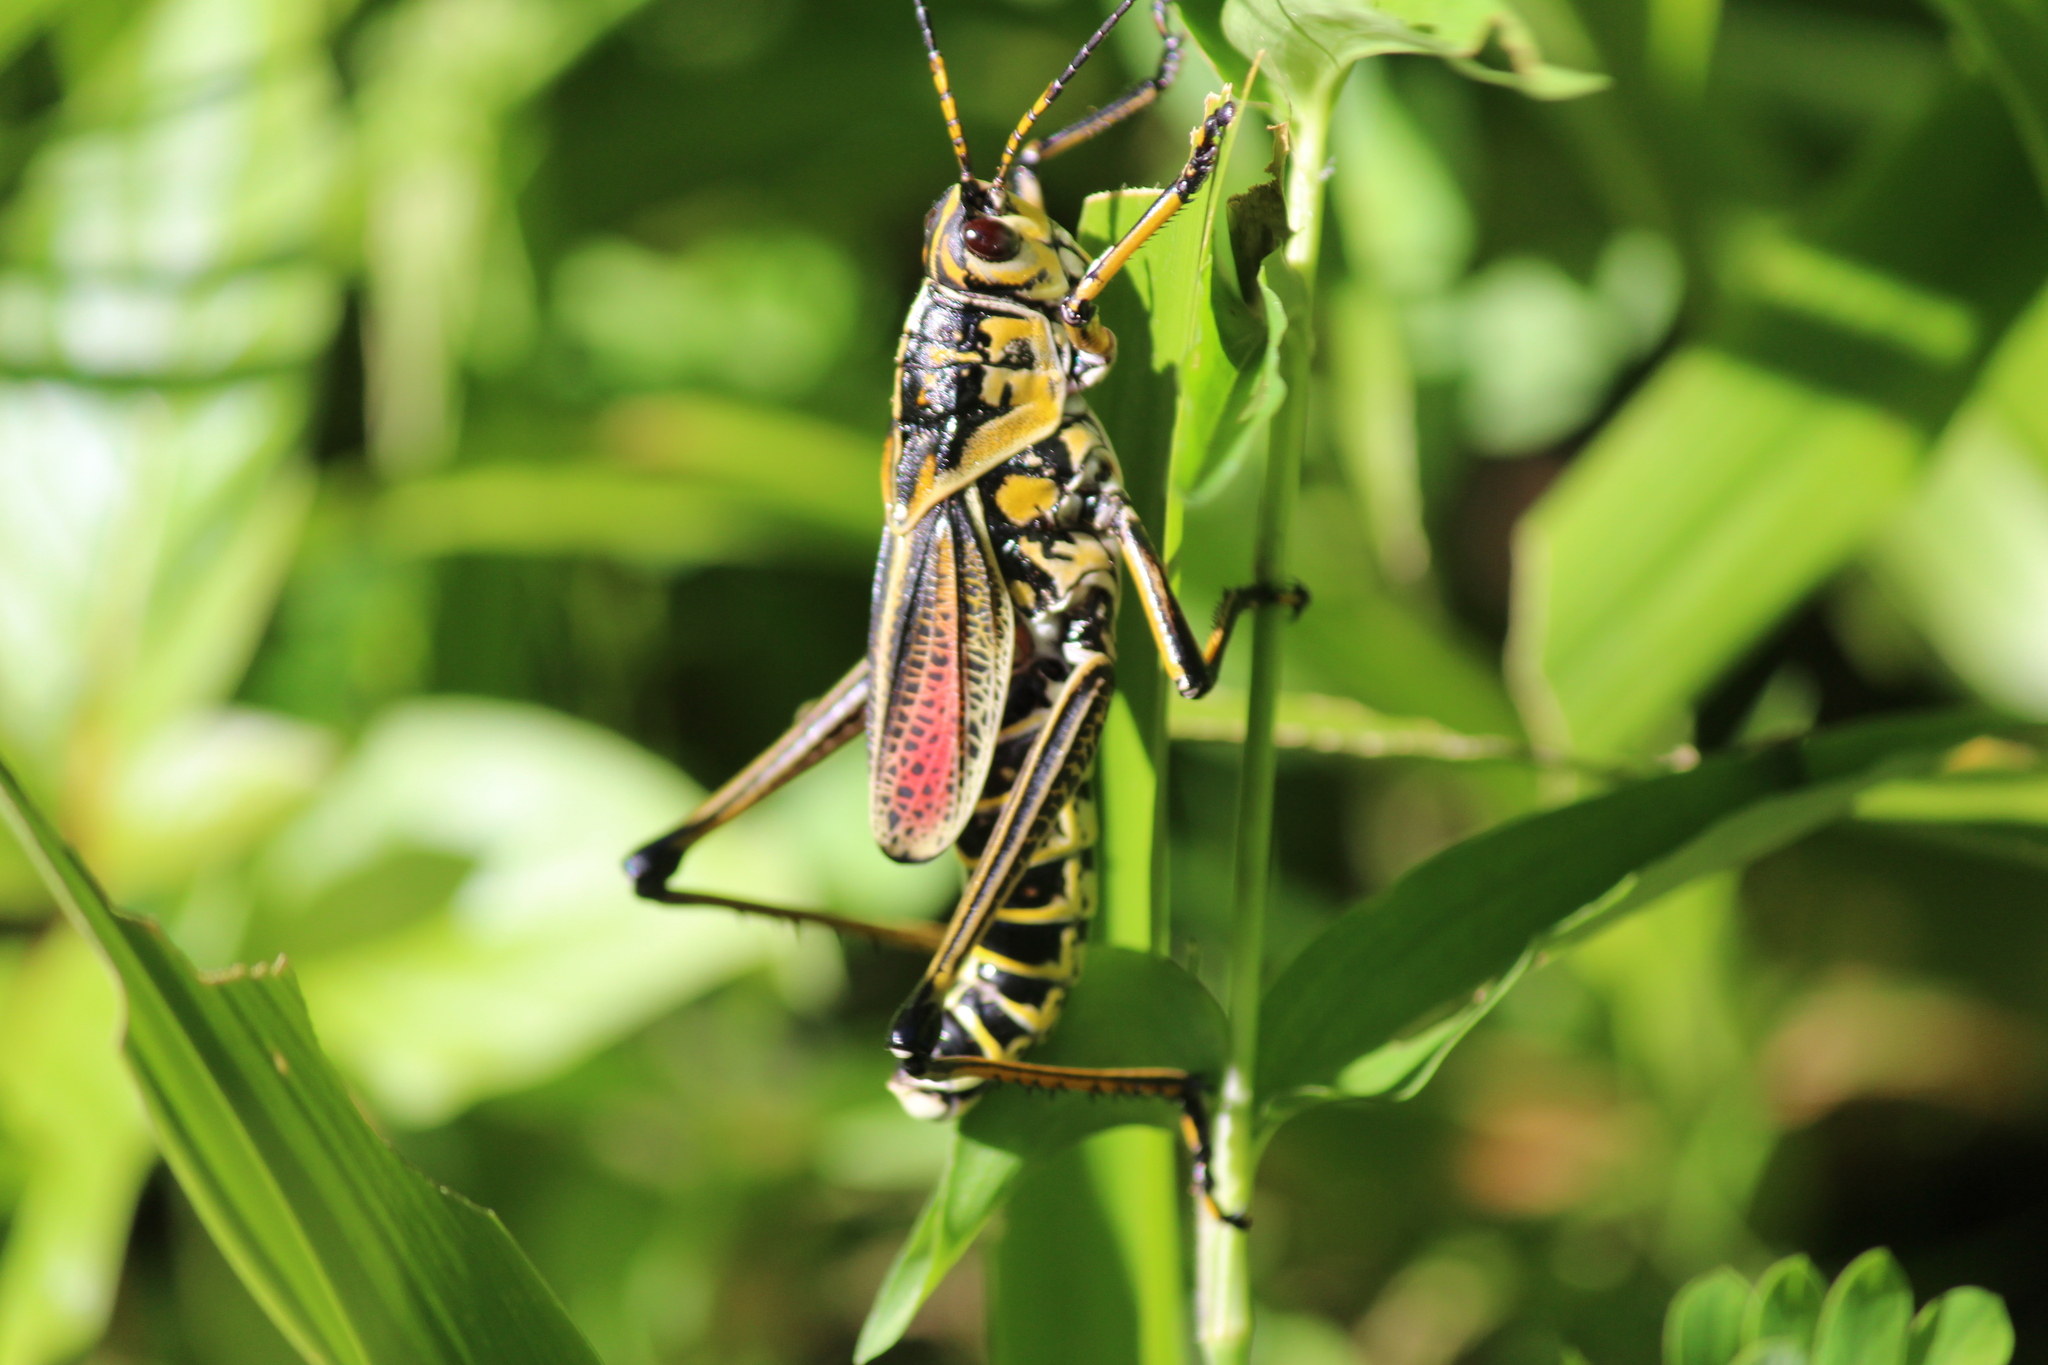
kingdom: Animalia
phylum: Arthropoda
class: Insecta
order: Orthoptera
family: Romaleidae
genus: Romalea
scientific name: Romalea microptera
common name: Eastern lubber grasshopper
